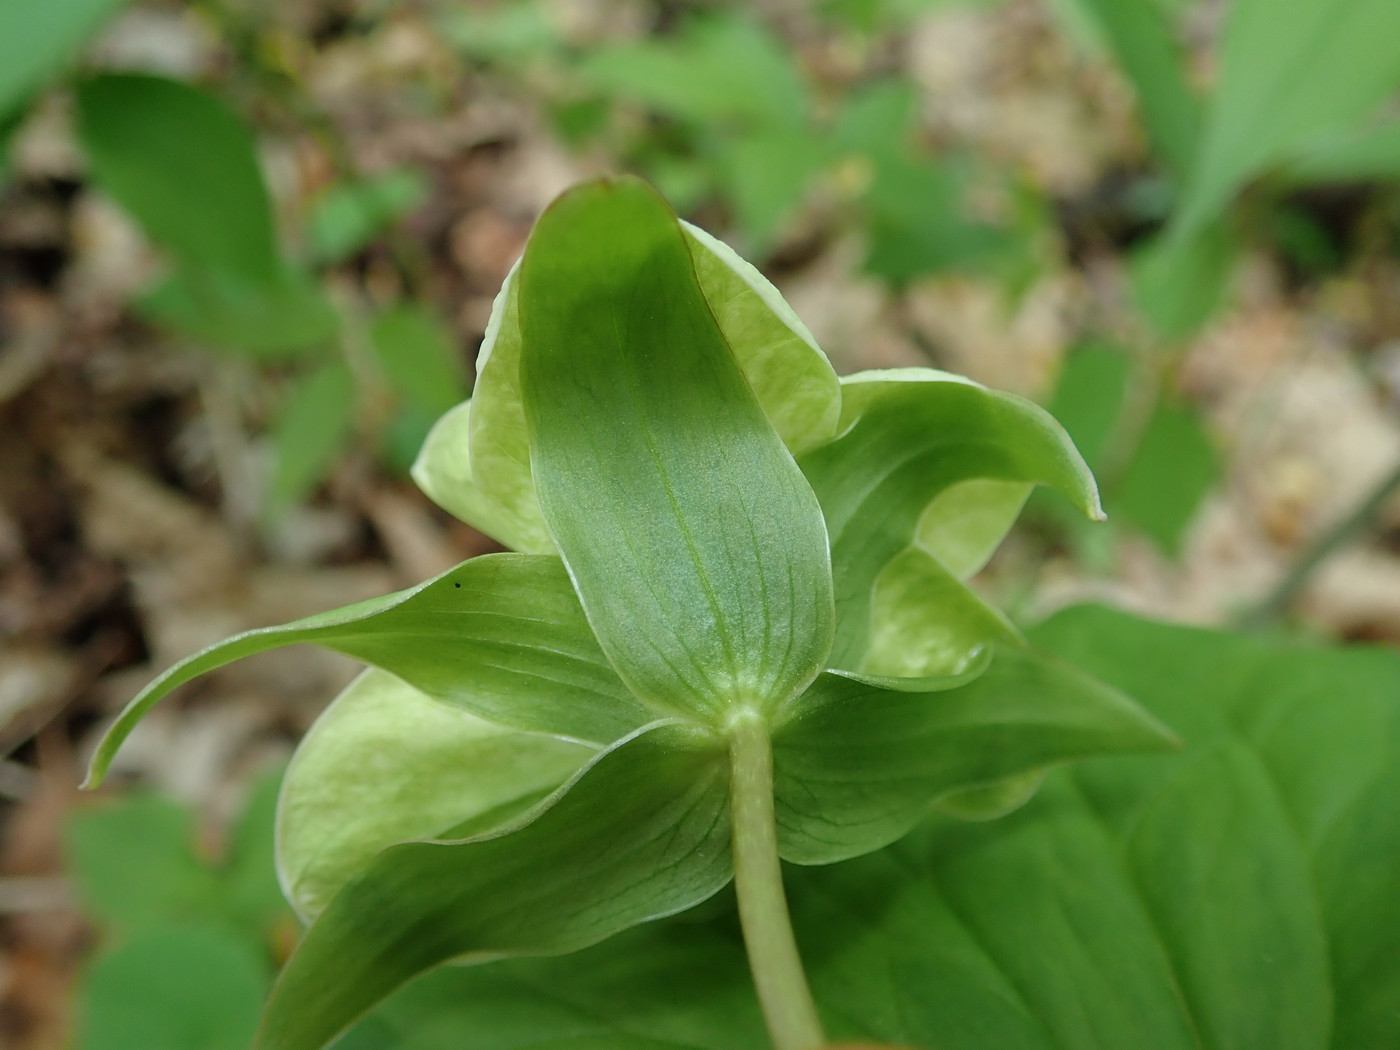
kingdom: Plantae
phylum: Tracheophyta
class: Liliopsida
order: Liliales
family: Melanthiaceae
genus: Trillium
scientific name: Trillium grandiflorum
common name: Great white trillium
